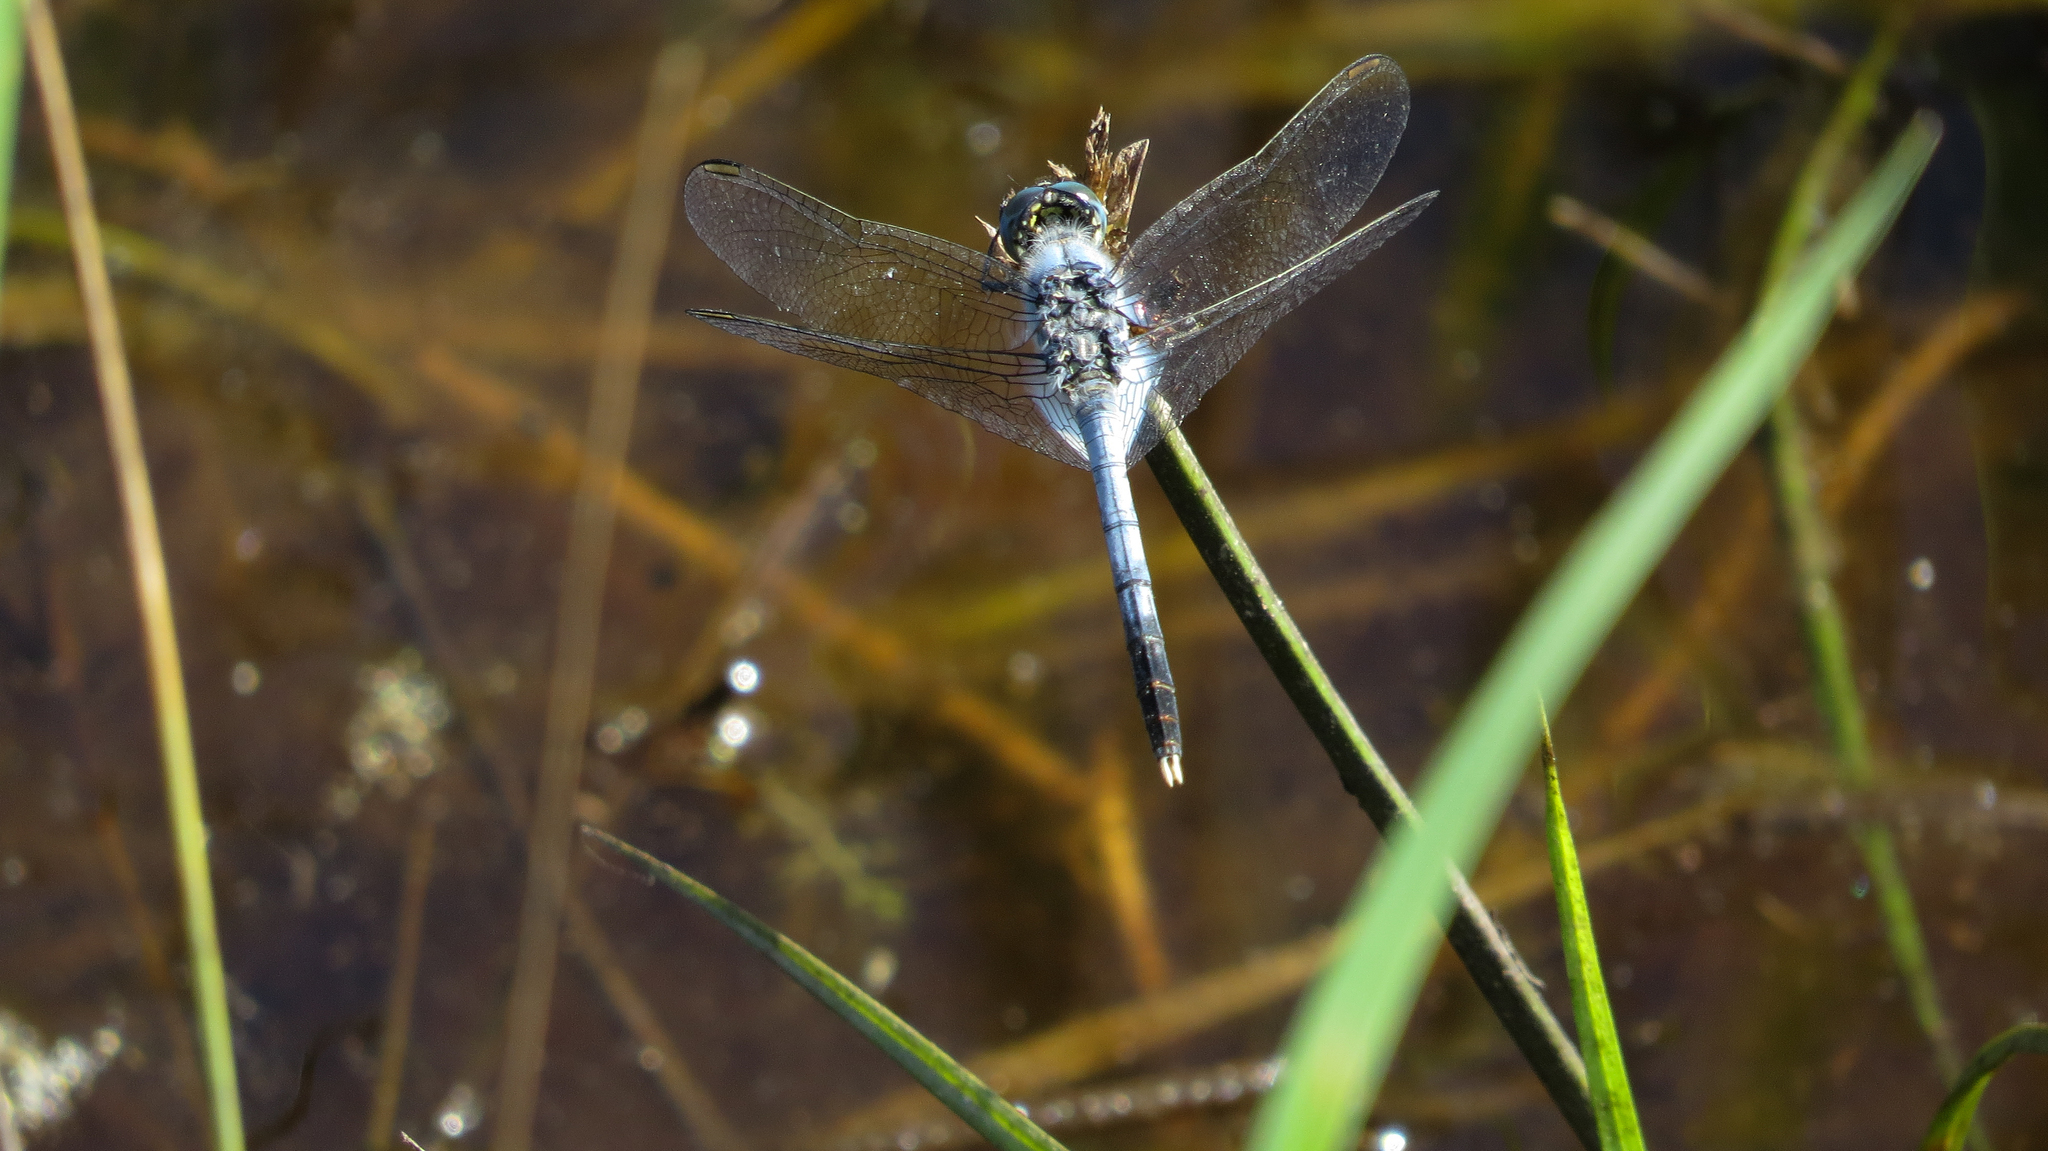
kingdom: Animalia
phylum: Arthropoda
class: Insecta
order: Odonata
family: Libellulidae
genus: Diplacodes
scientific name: Diplacodes trivialis
